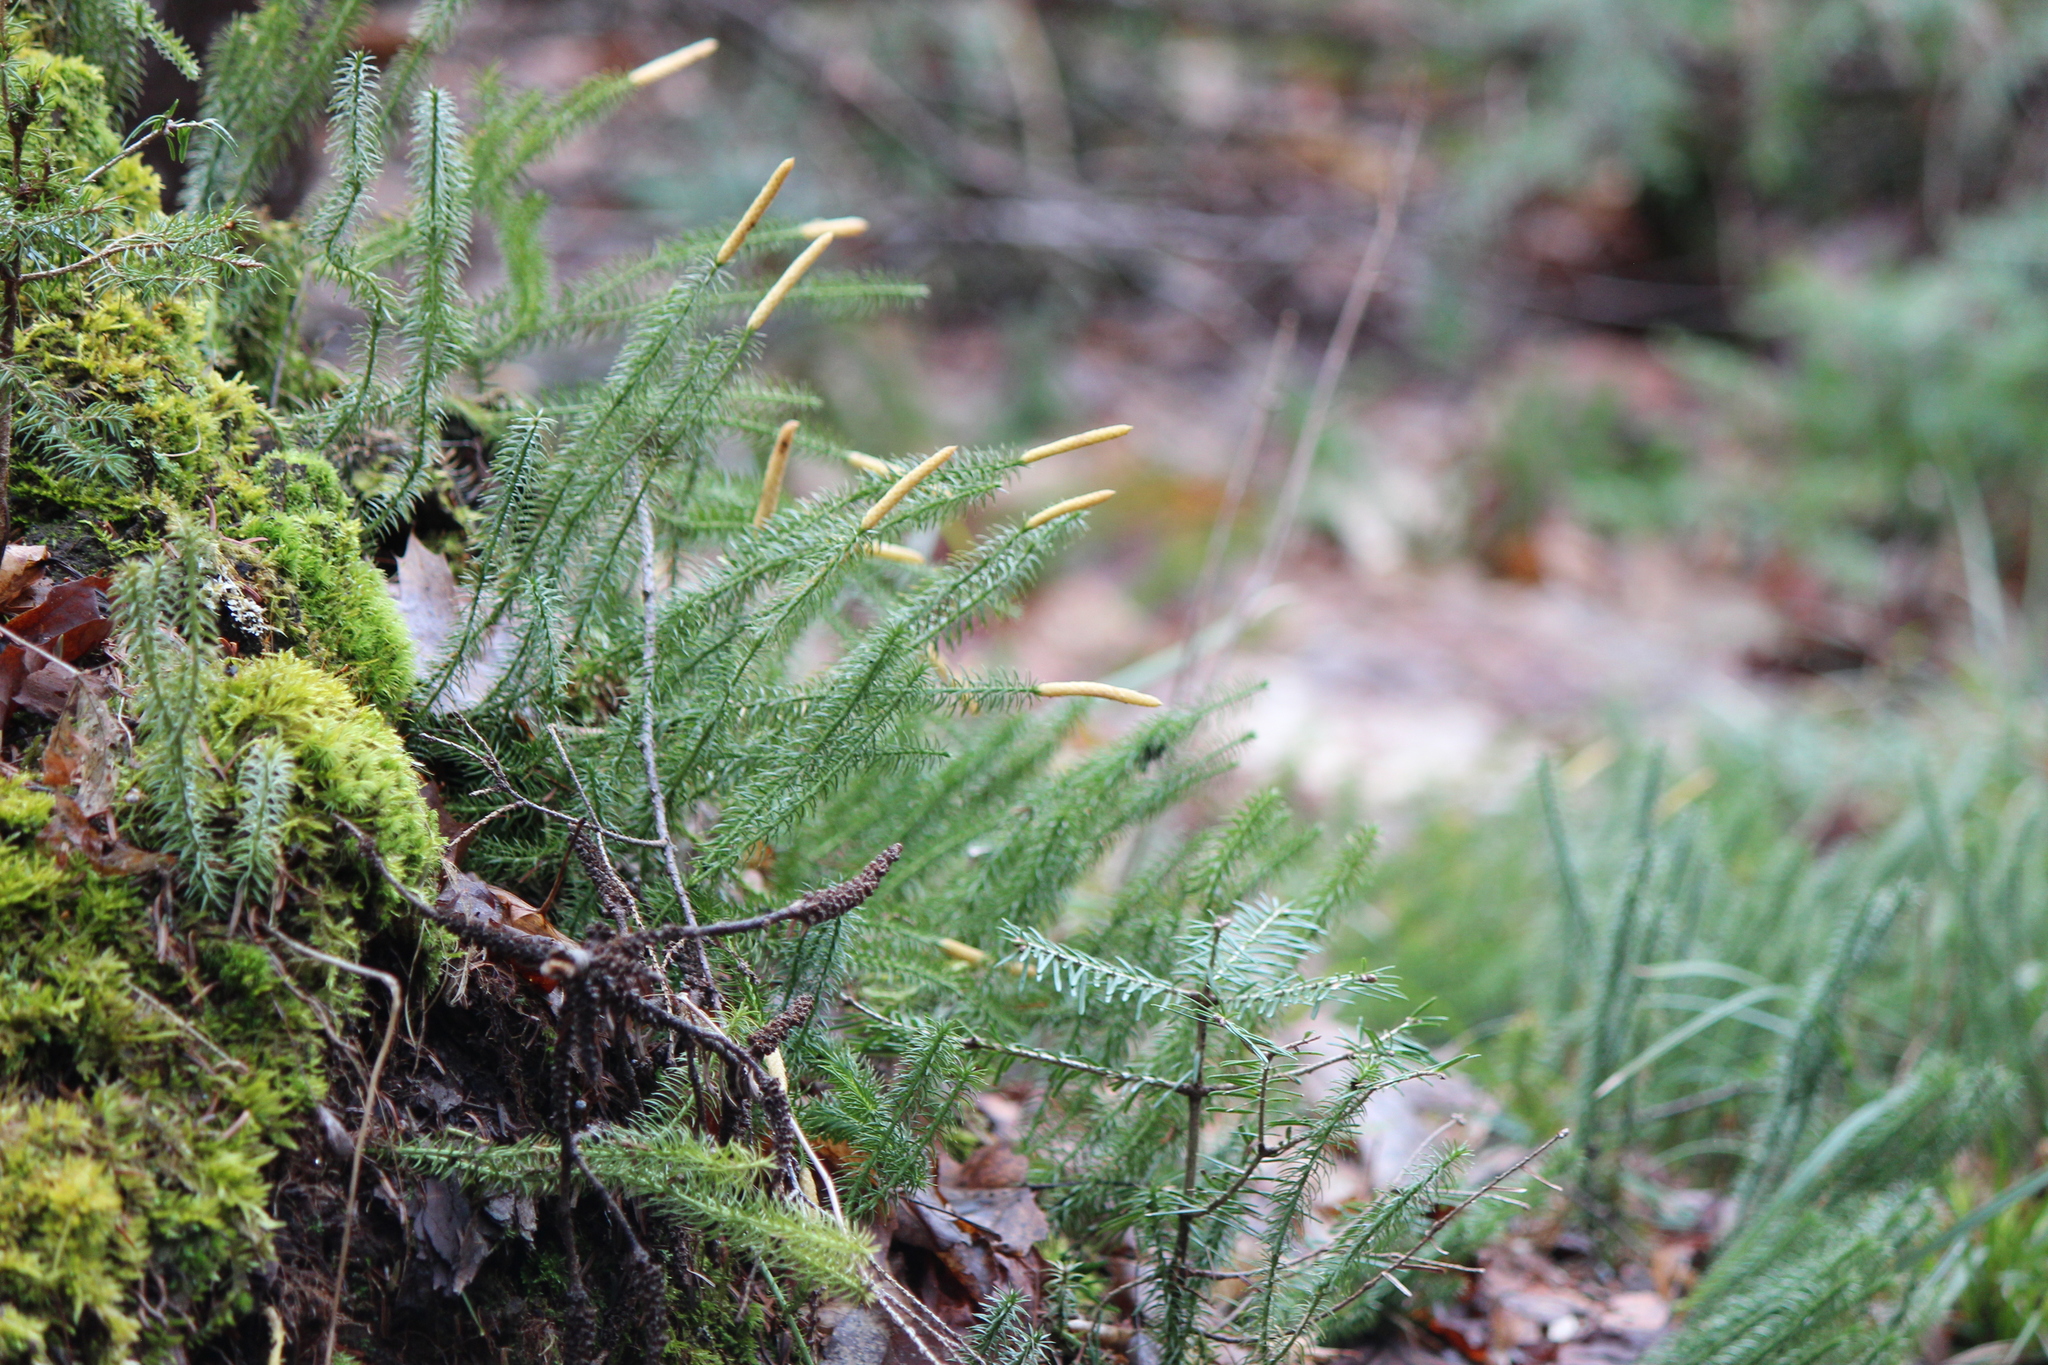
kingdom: Plantae
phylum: Tracheophyta
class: Lycopodiopsida
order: Lycopodiales
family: Lycopodiaceae
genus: Spinulum
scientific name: Spinulum annotinum
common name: Interrupted club-moss
